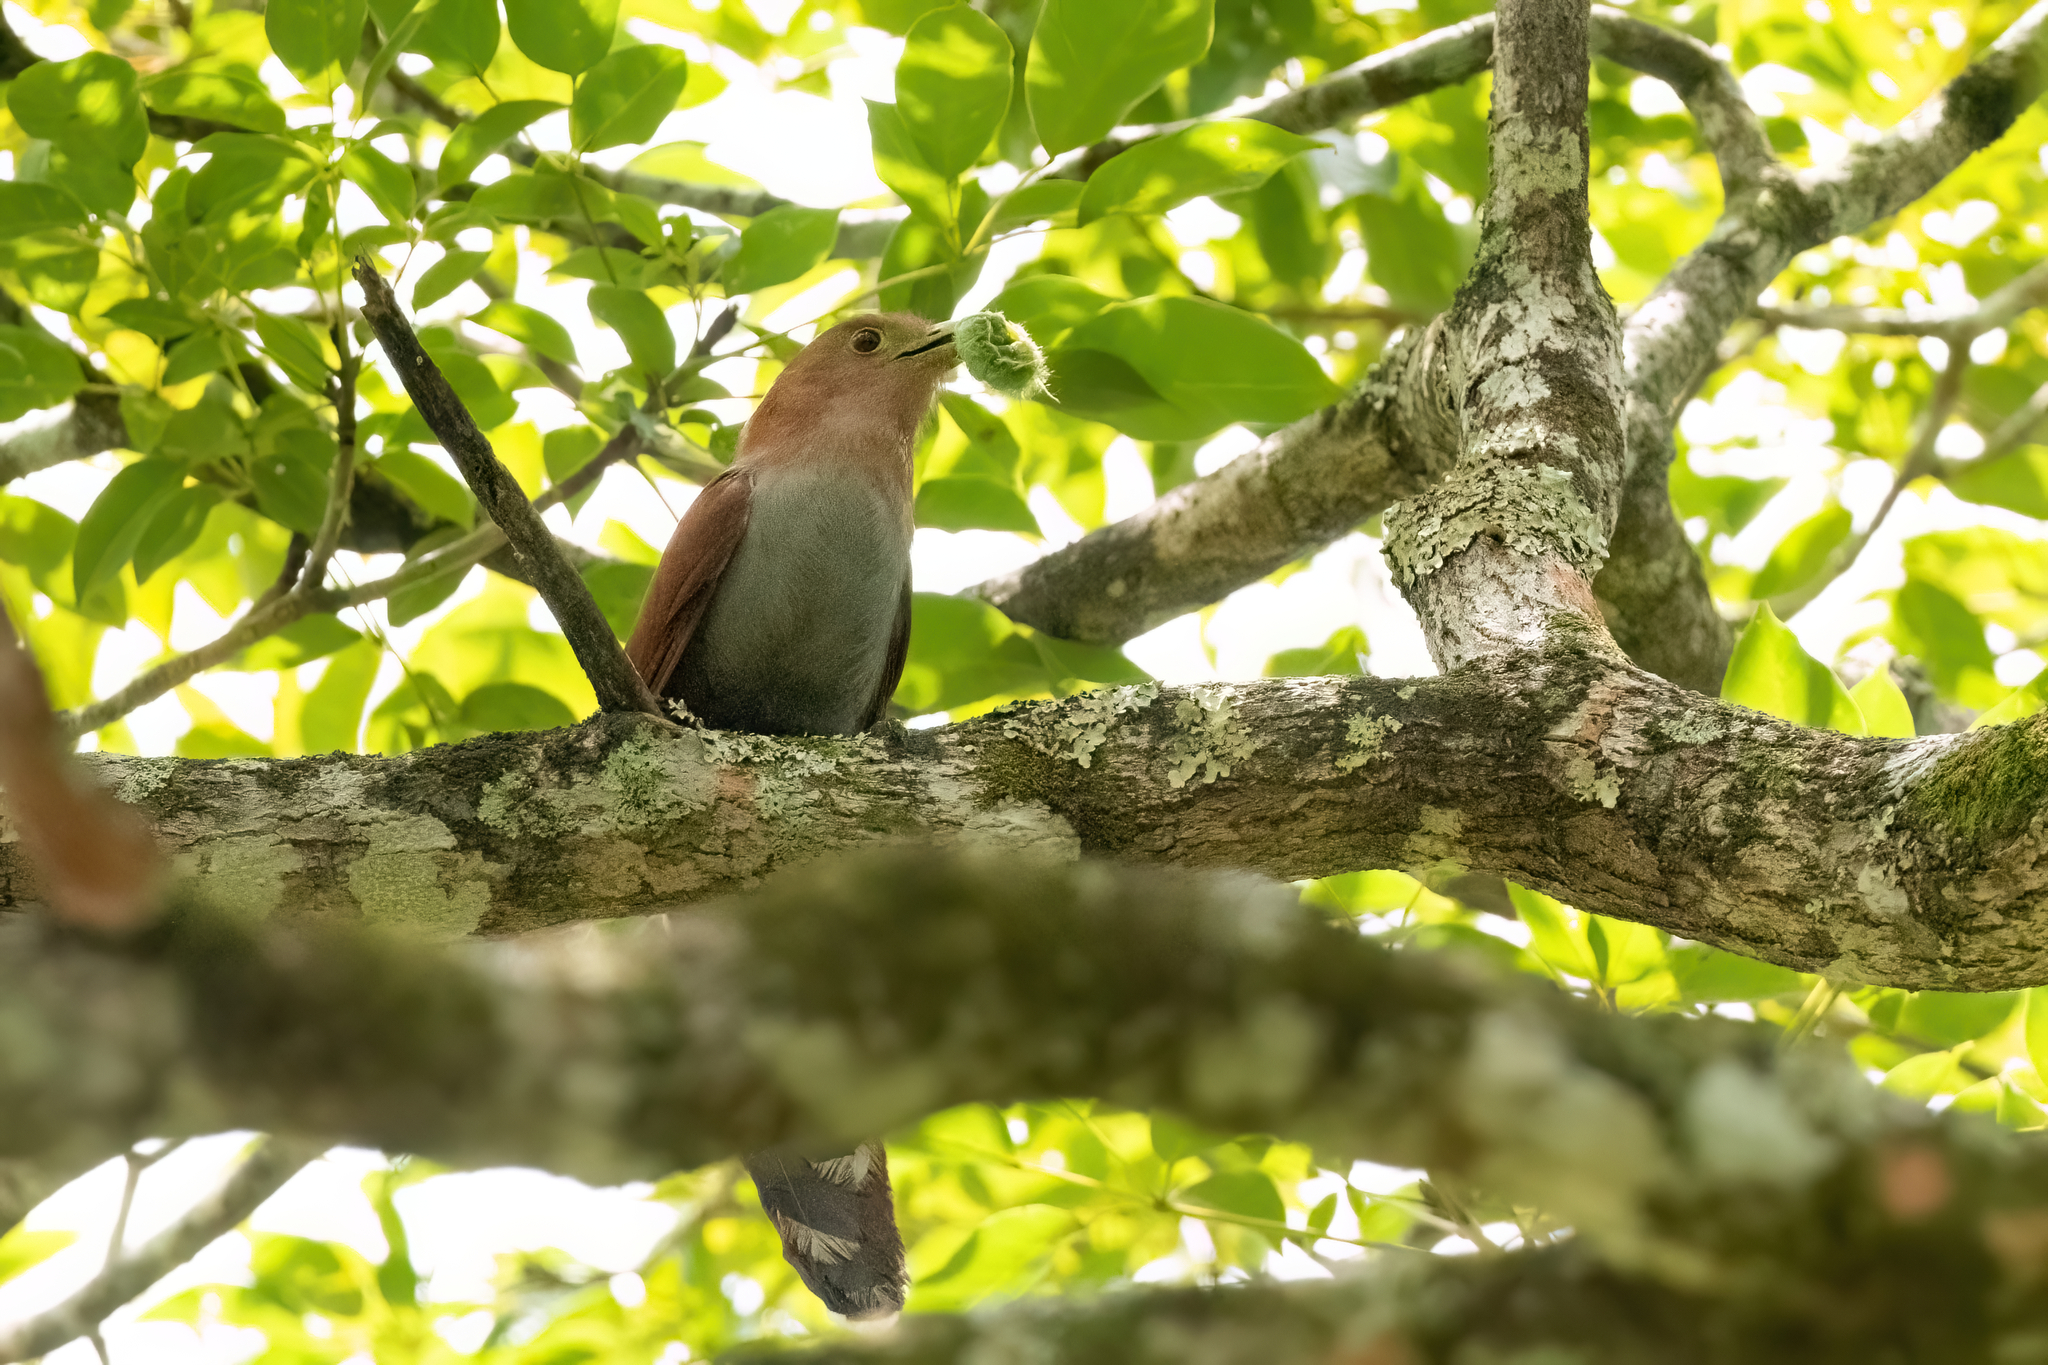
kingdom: Animalia
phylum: Chordata
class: Aves
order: Cuculiformes
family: Cuculidae
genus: Piaya
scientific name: Piaya cayana
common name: Squirrel cuckoo
